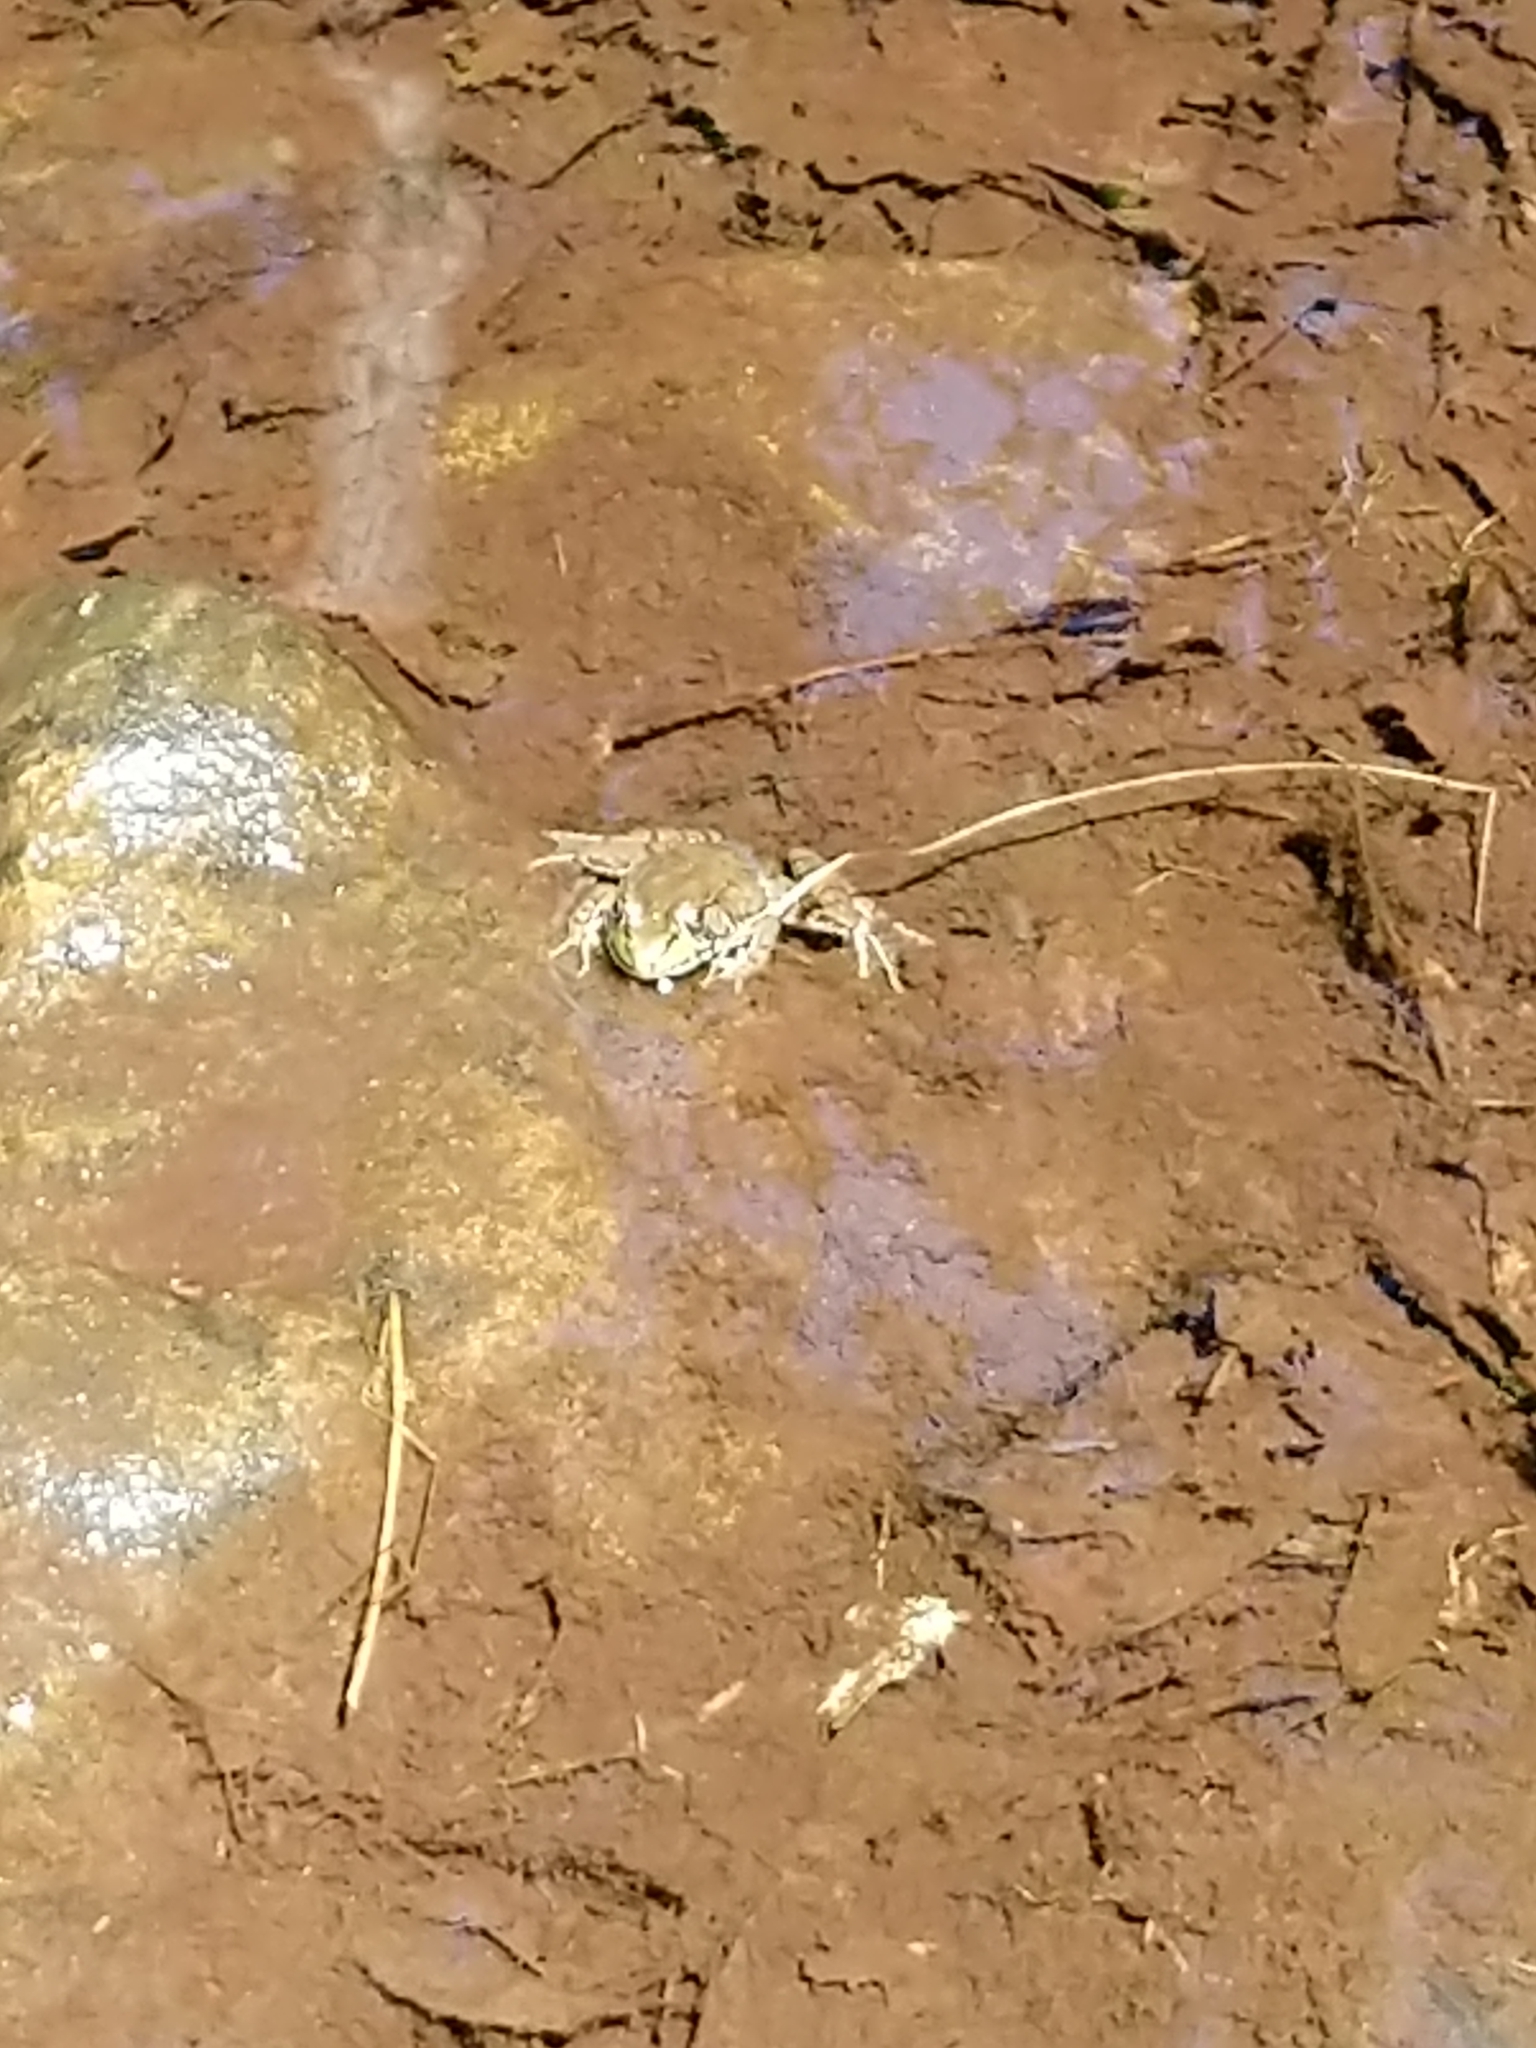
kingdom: Animalia
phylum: Chordata
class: Amphibia
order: Anura
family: Ranidae
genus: Lithobates
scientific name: Lithobates clamitans
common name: Green frog
